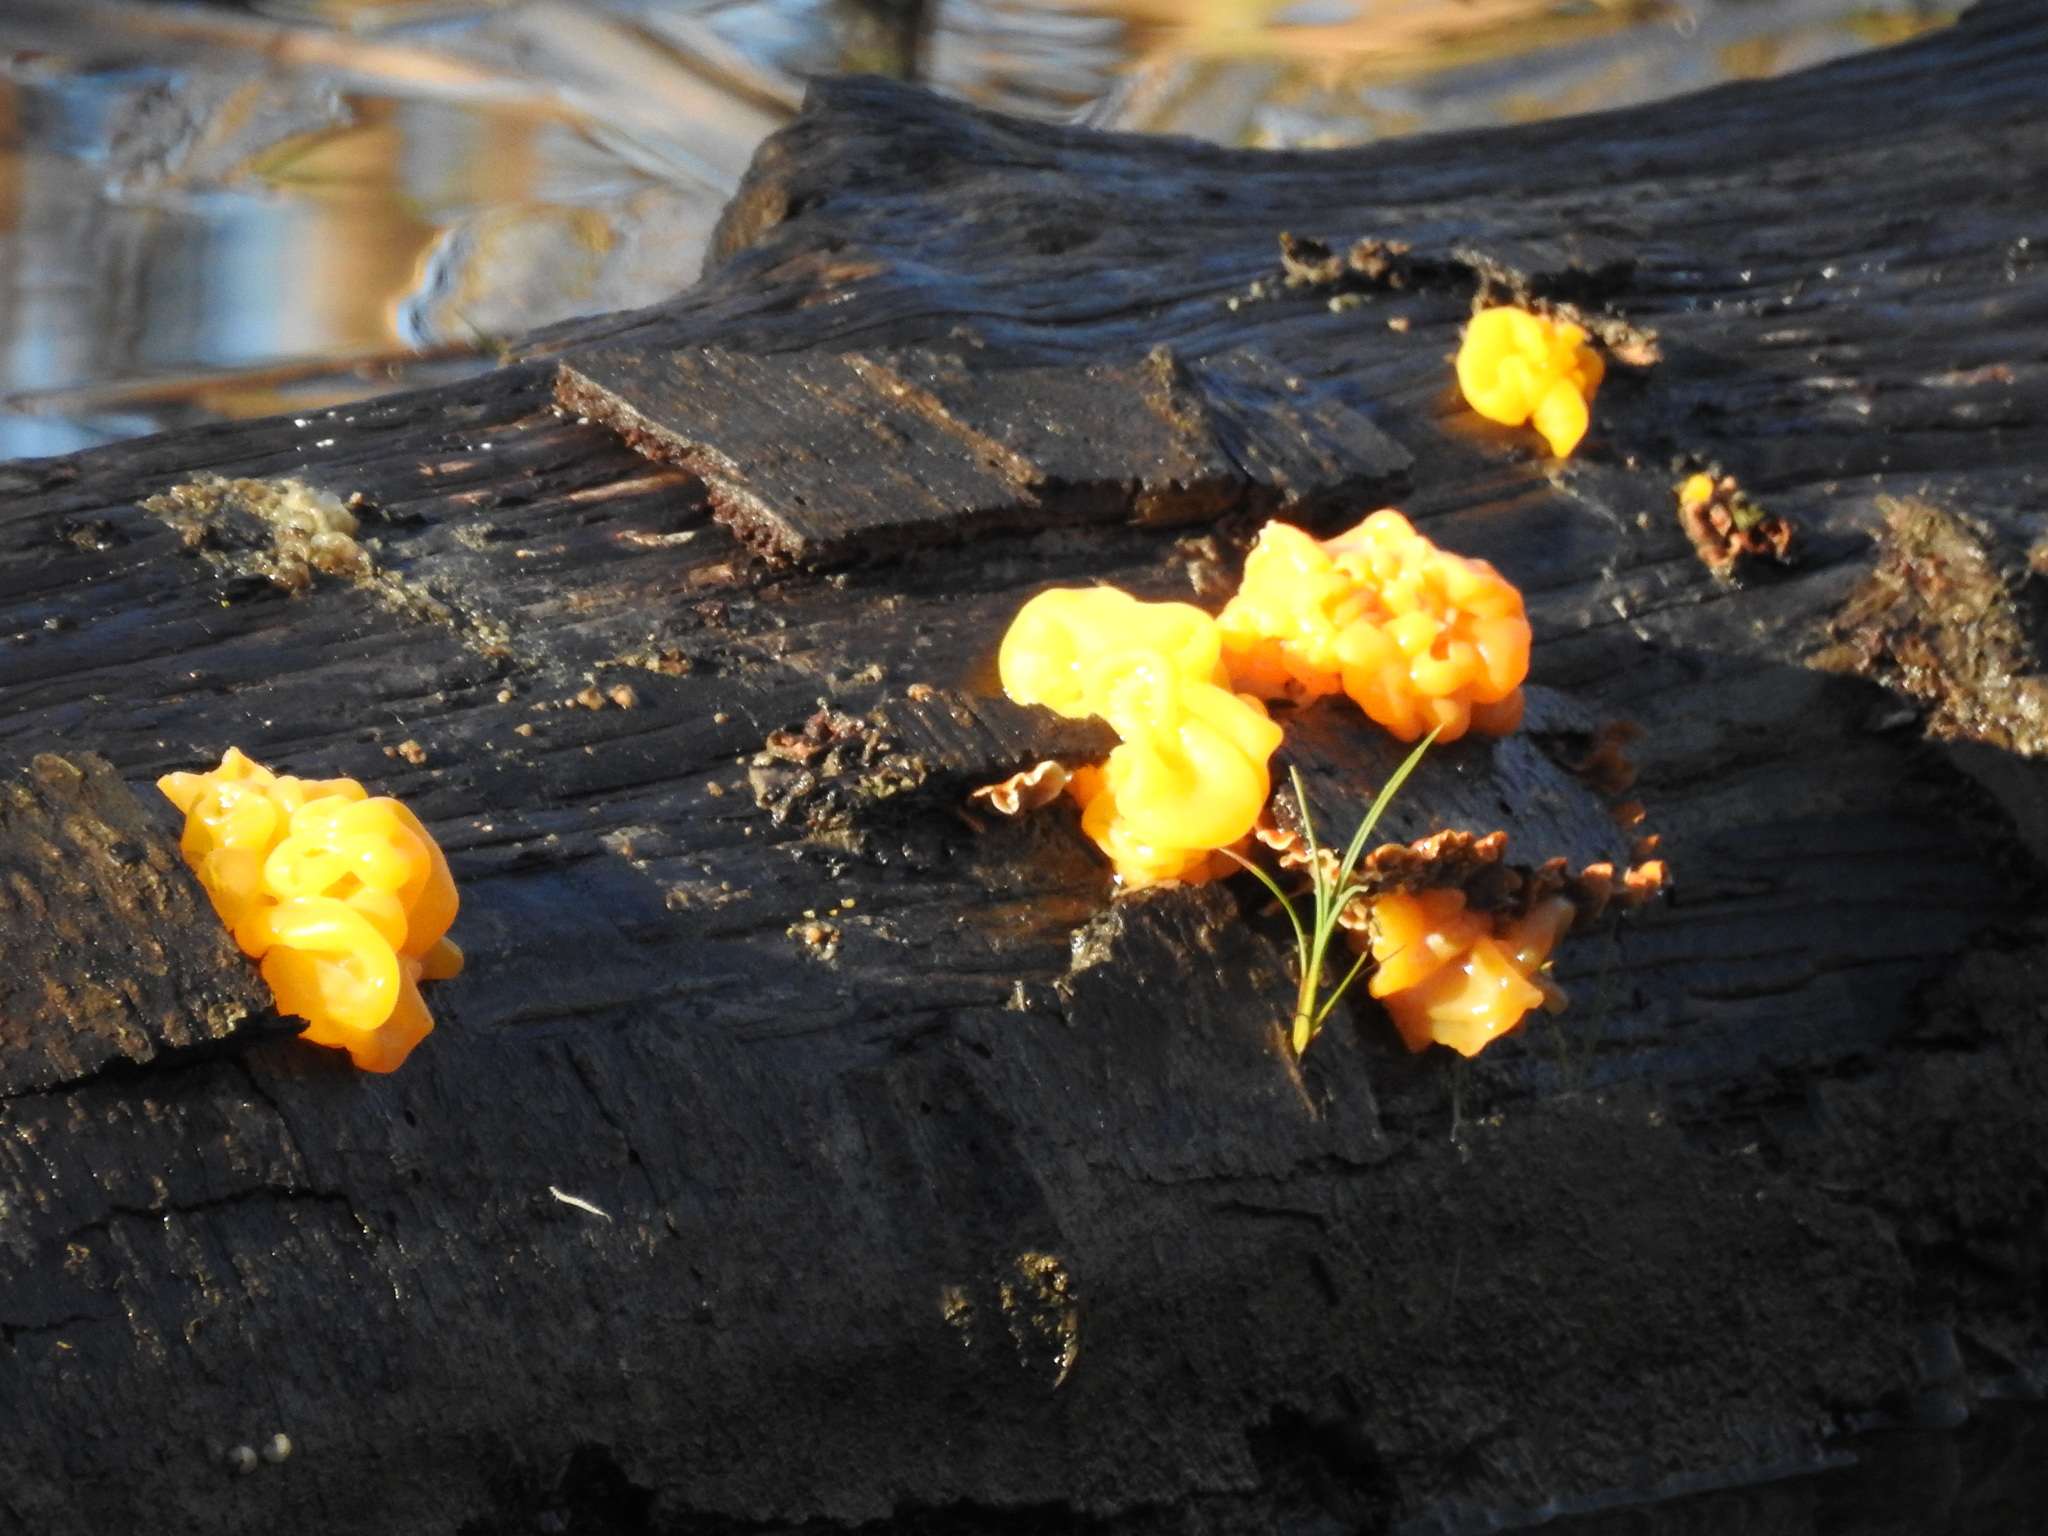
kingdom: Fungi
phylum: Basidiomycota
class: Tremellomycetes
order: Tremellales
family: Tremellaceae
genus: Tremella
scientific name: Tremella mesenterica
